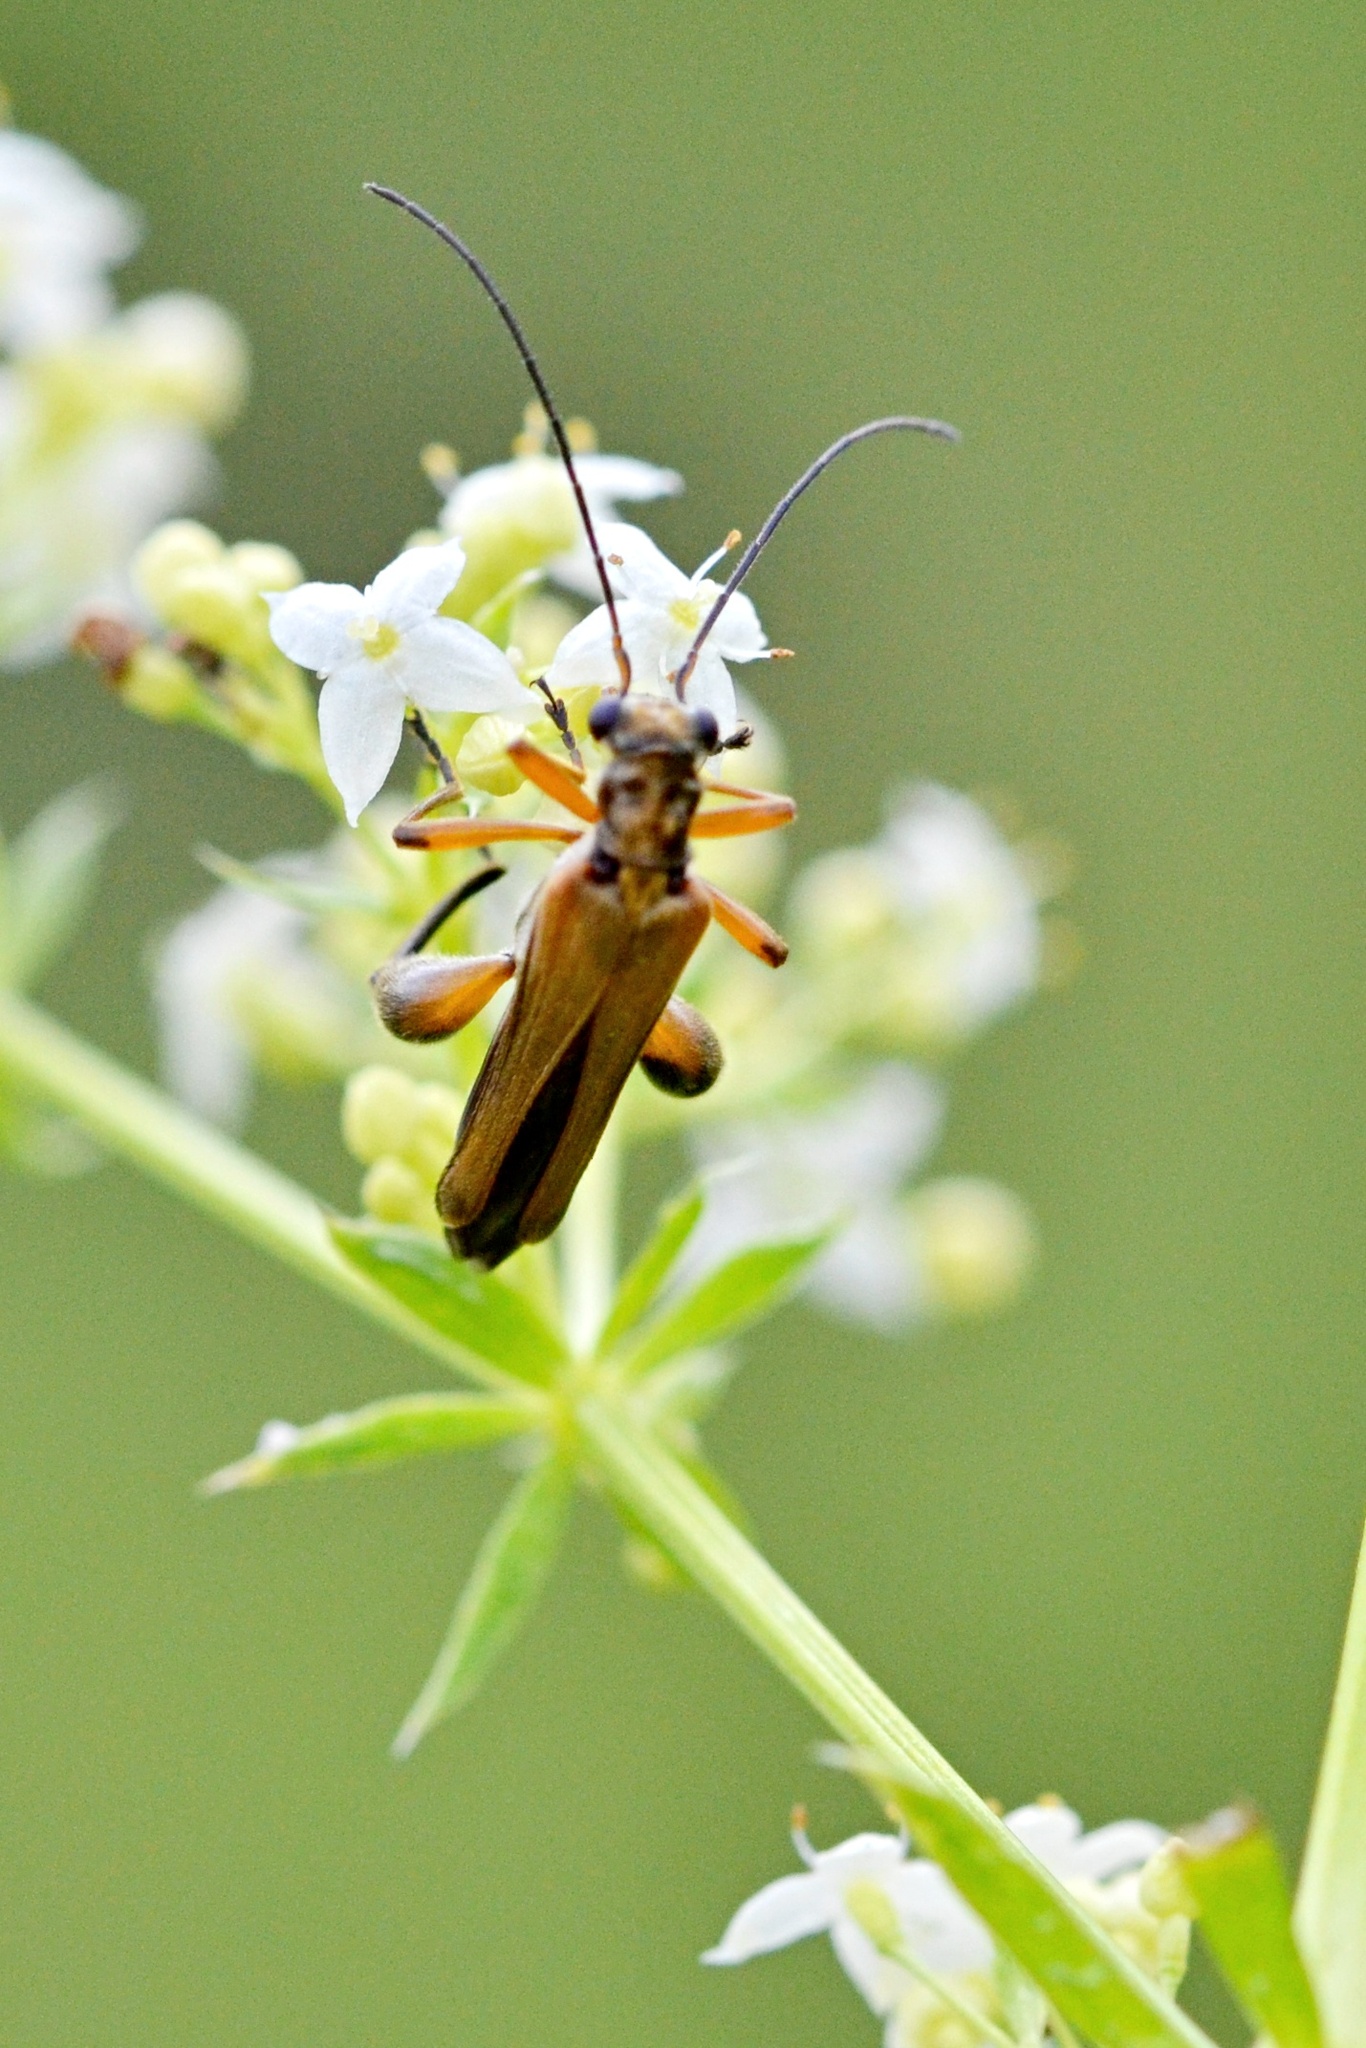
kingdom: Animalia
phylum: Arthropoda
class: Insecta
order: Coleoptera
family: Oedemeridae
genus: Oedemera
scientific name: Oedemera podagrariae
